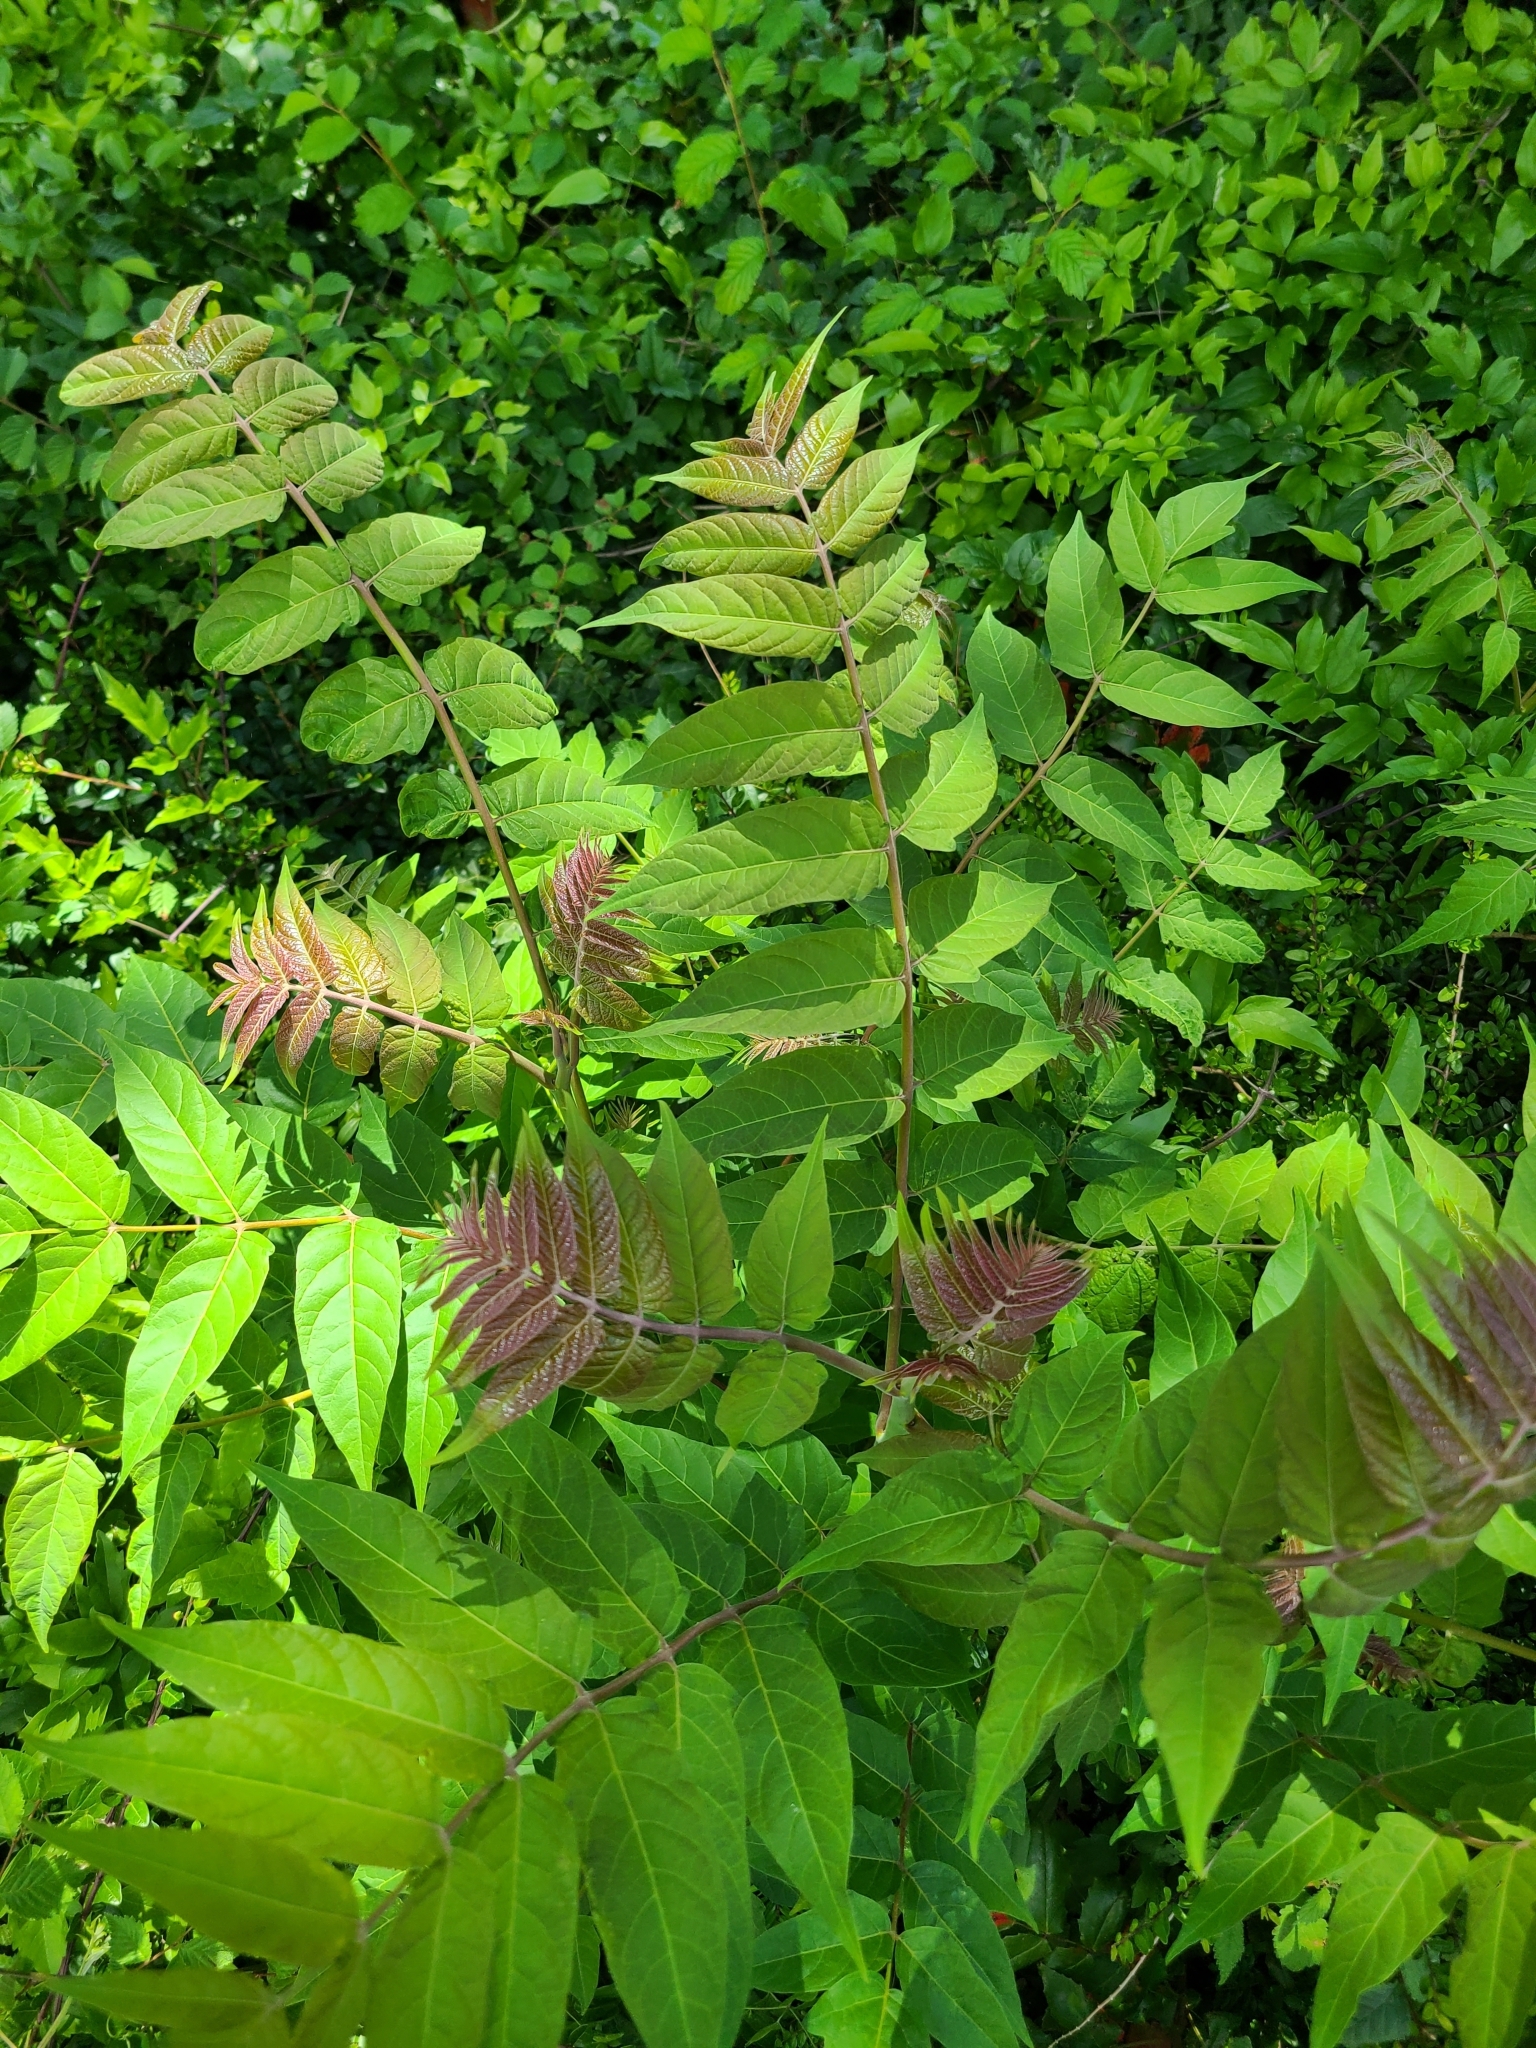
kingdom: Plantae
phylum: Tracheophyta
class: Magnoliopsida
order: Sapindales
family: Simaroubaceae
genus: Ailanthus
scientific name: Ailanthus altissima
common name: Tree-of-heaven
